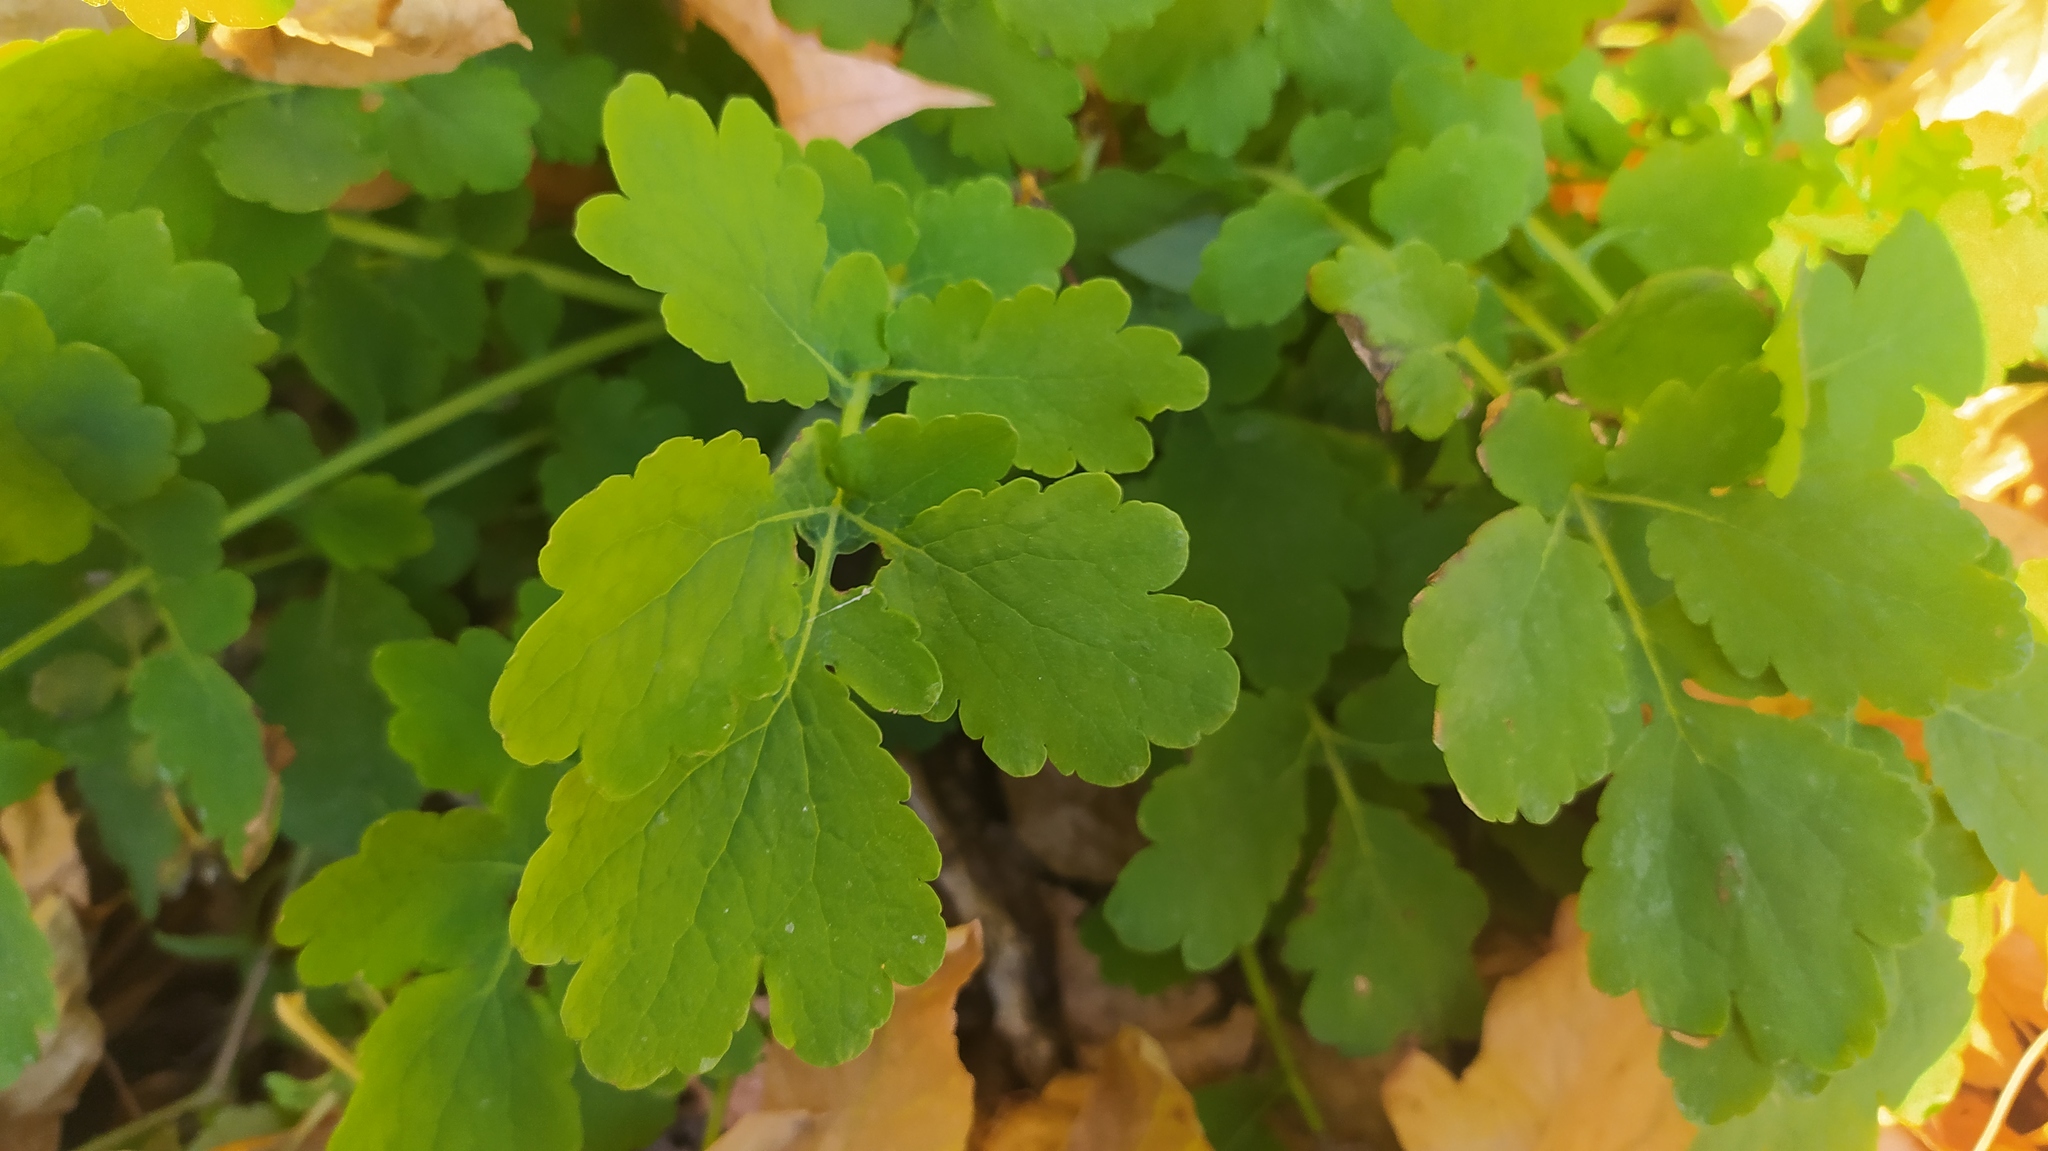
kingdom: Plantae
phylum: Tracheophyta
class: Magnoliopsida
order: Ranunculales
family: Papaveraceae
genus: Chelidonium
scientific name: Chelidonium majus
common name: Greater celandine
